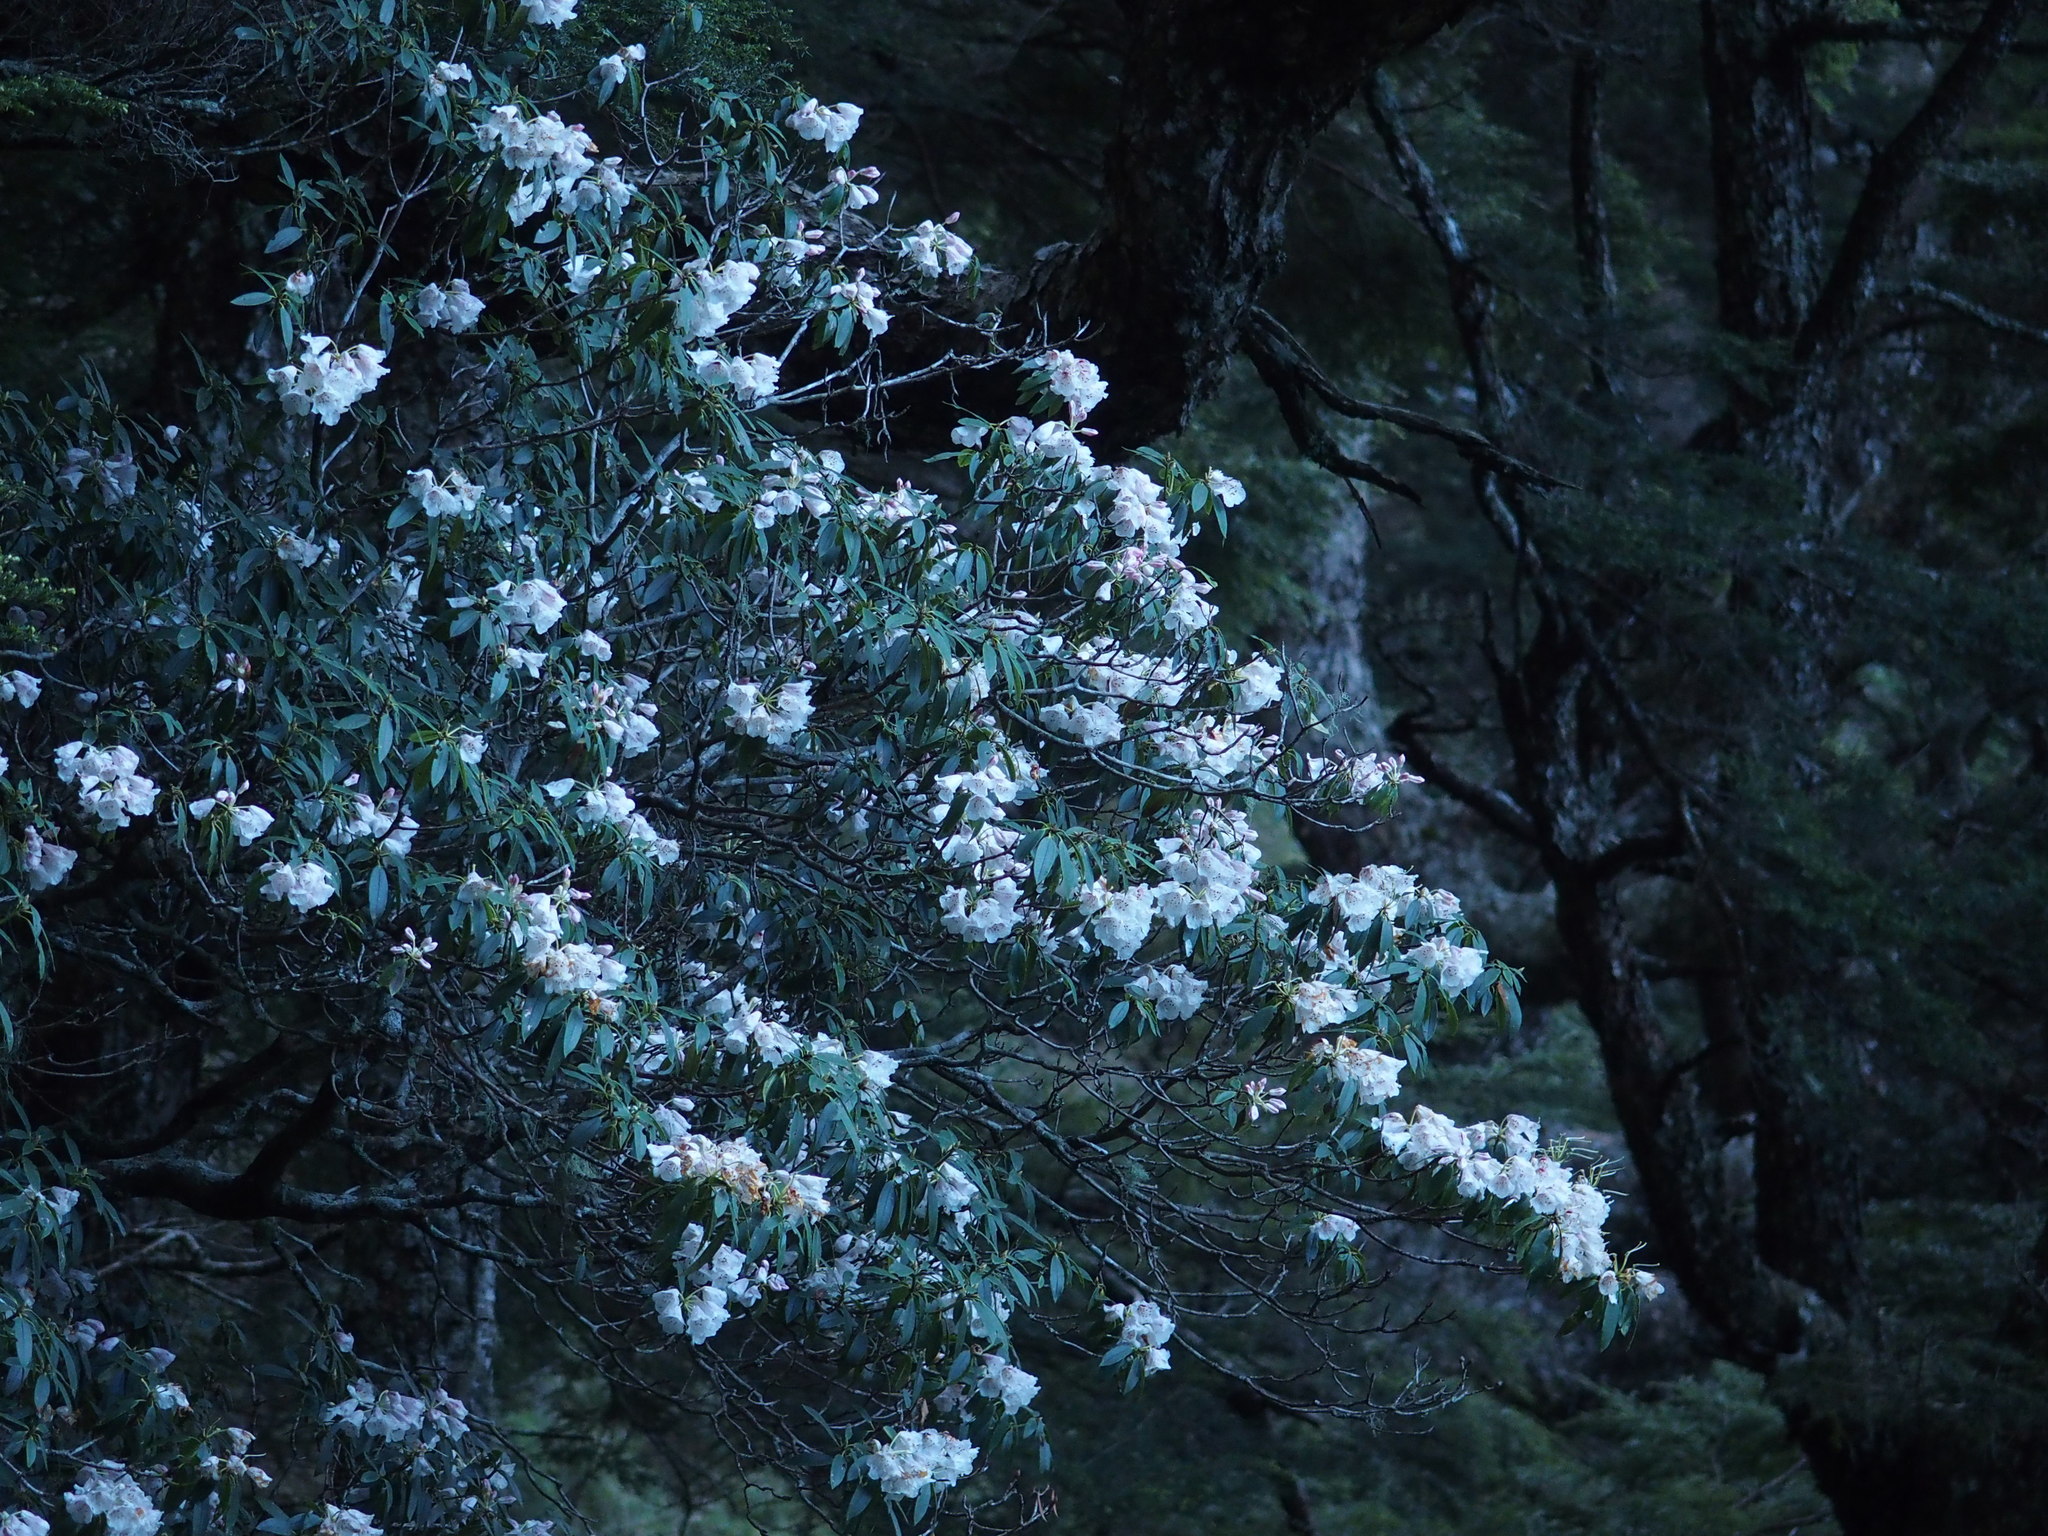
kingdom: Plantae
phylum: Tracheophyta
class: Magnoliopsida
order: Ericales
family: Ericaceae
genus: Rhododendron
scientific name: Rhododendron pseudochrysanthum
